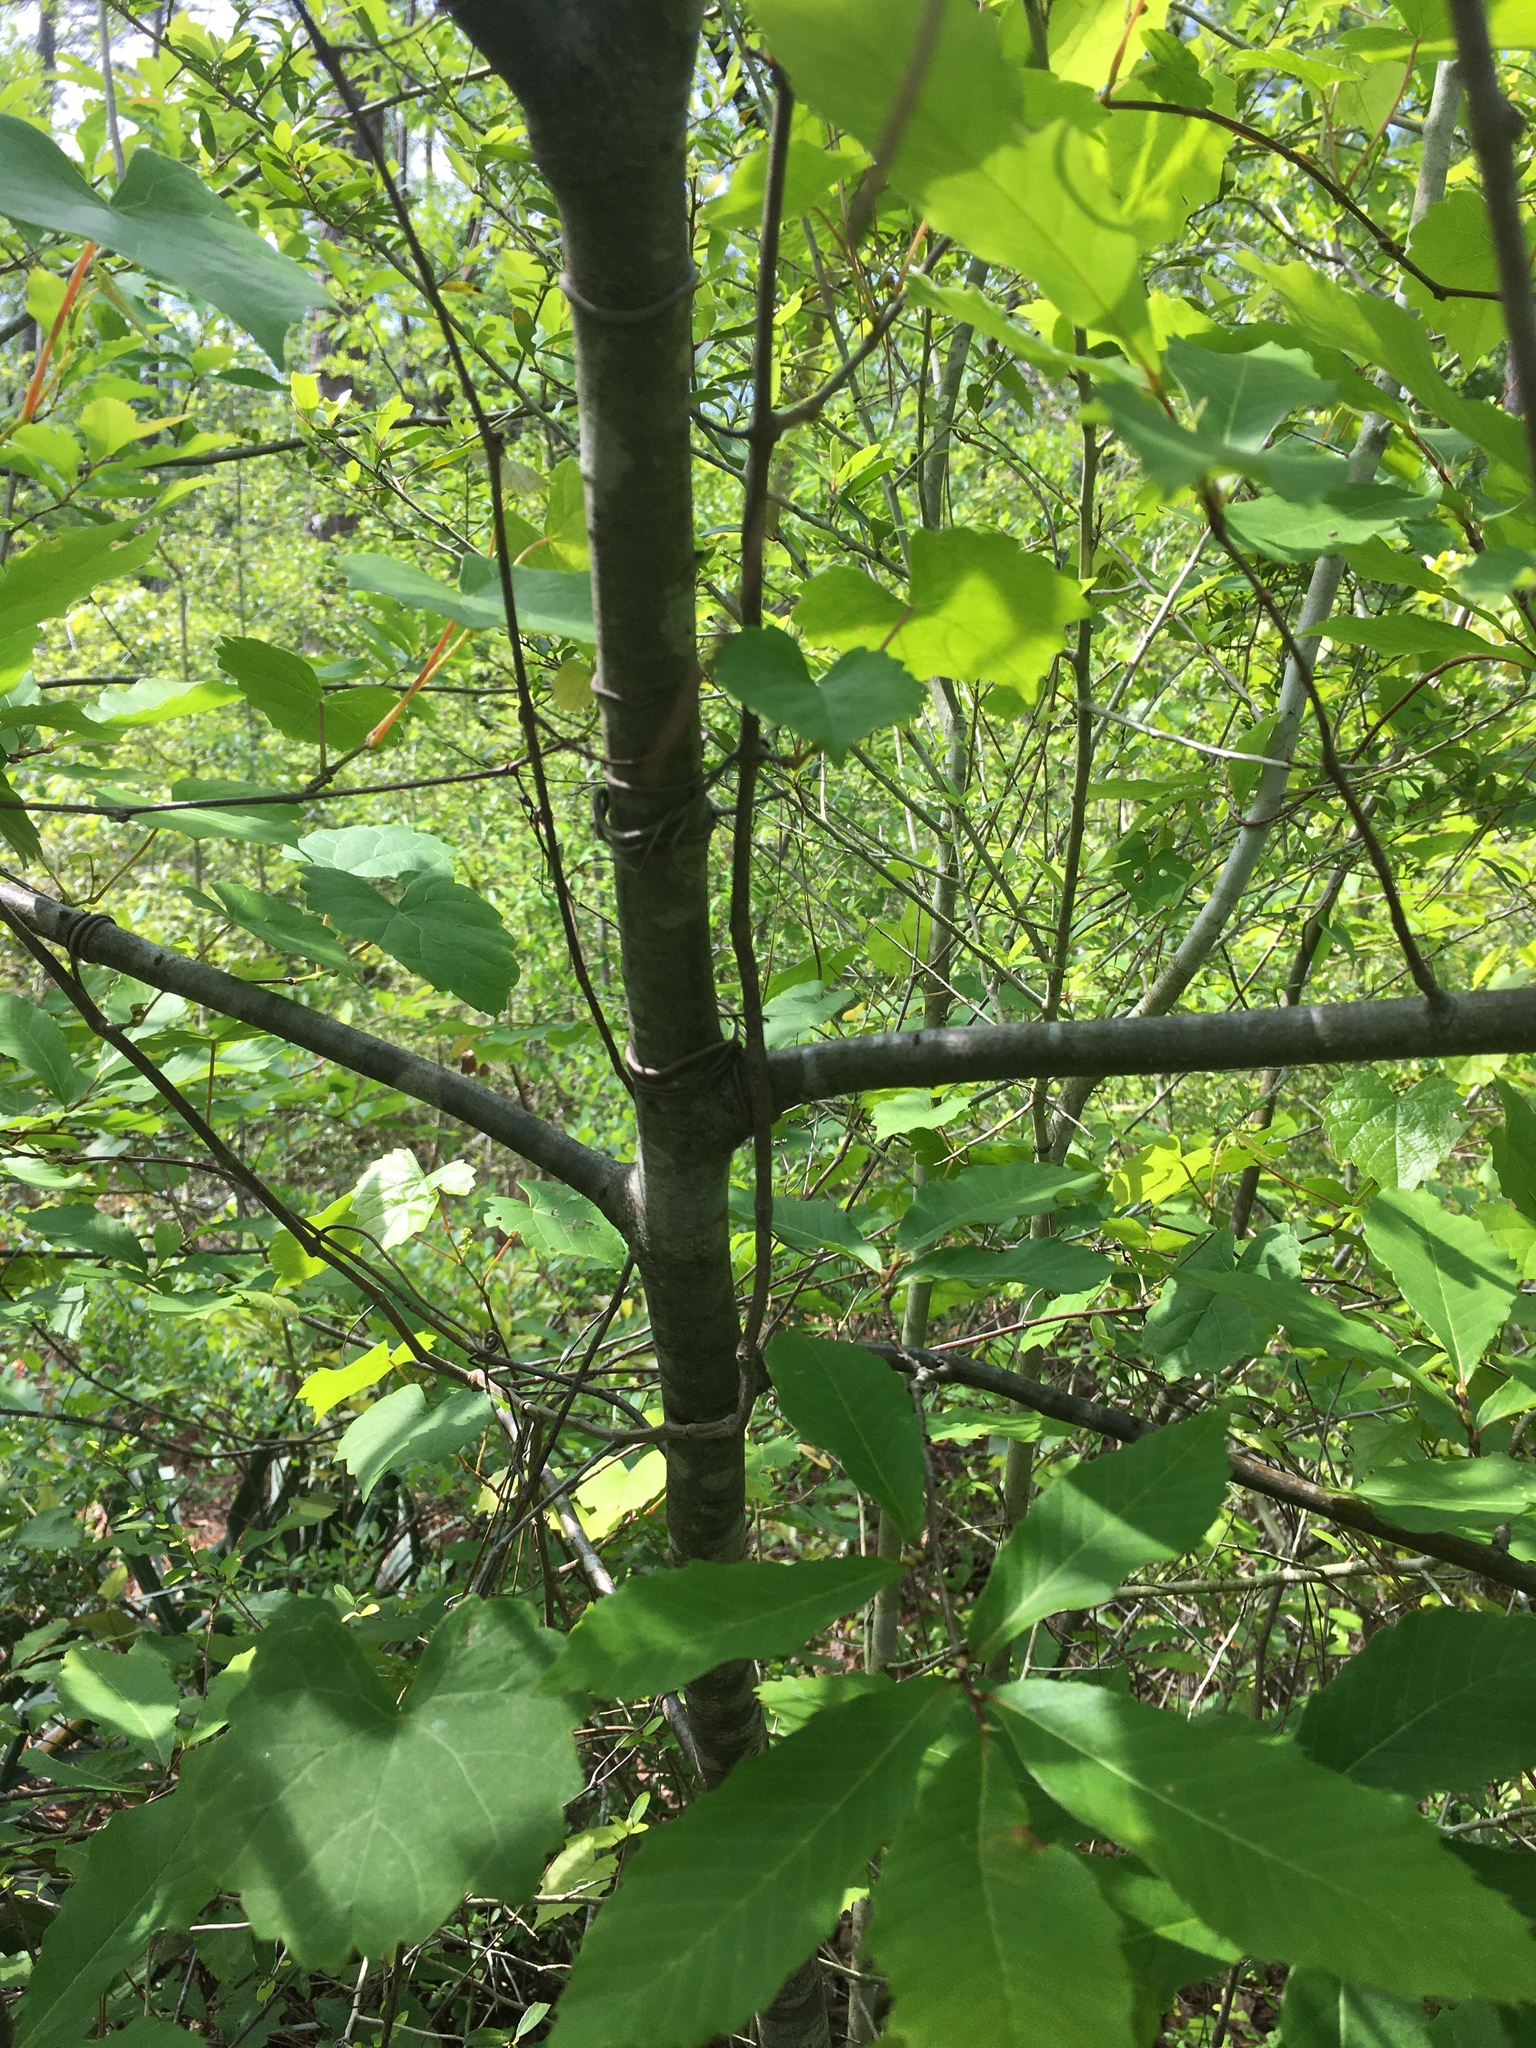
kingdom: Plantae
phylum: Tracheophyta
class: Magnoliopsida
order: Fagales
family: Fagaceae
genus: Castanea
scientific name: Castanea pumila
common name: Chinkapin
